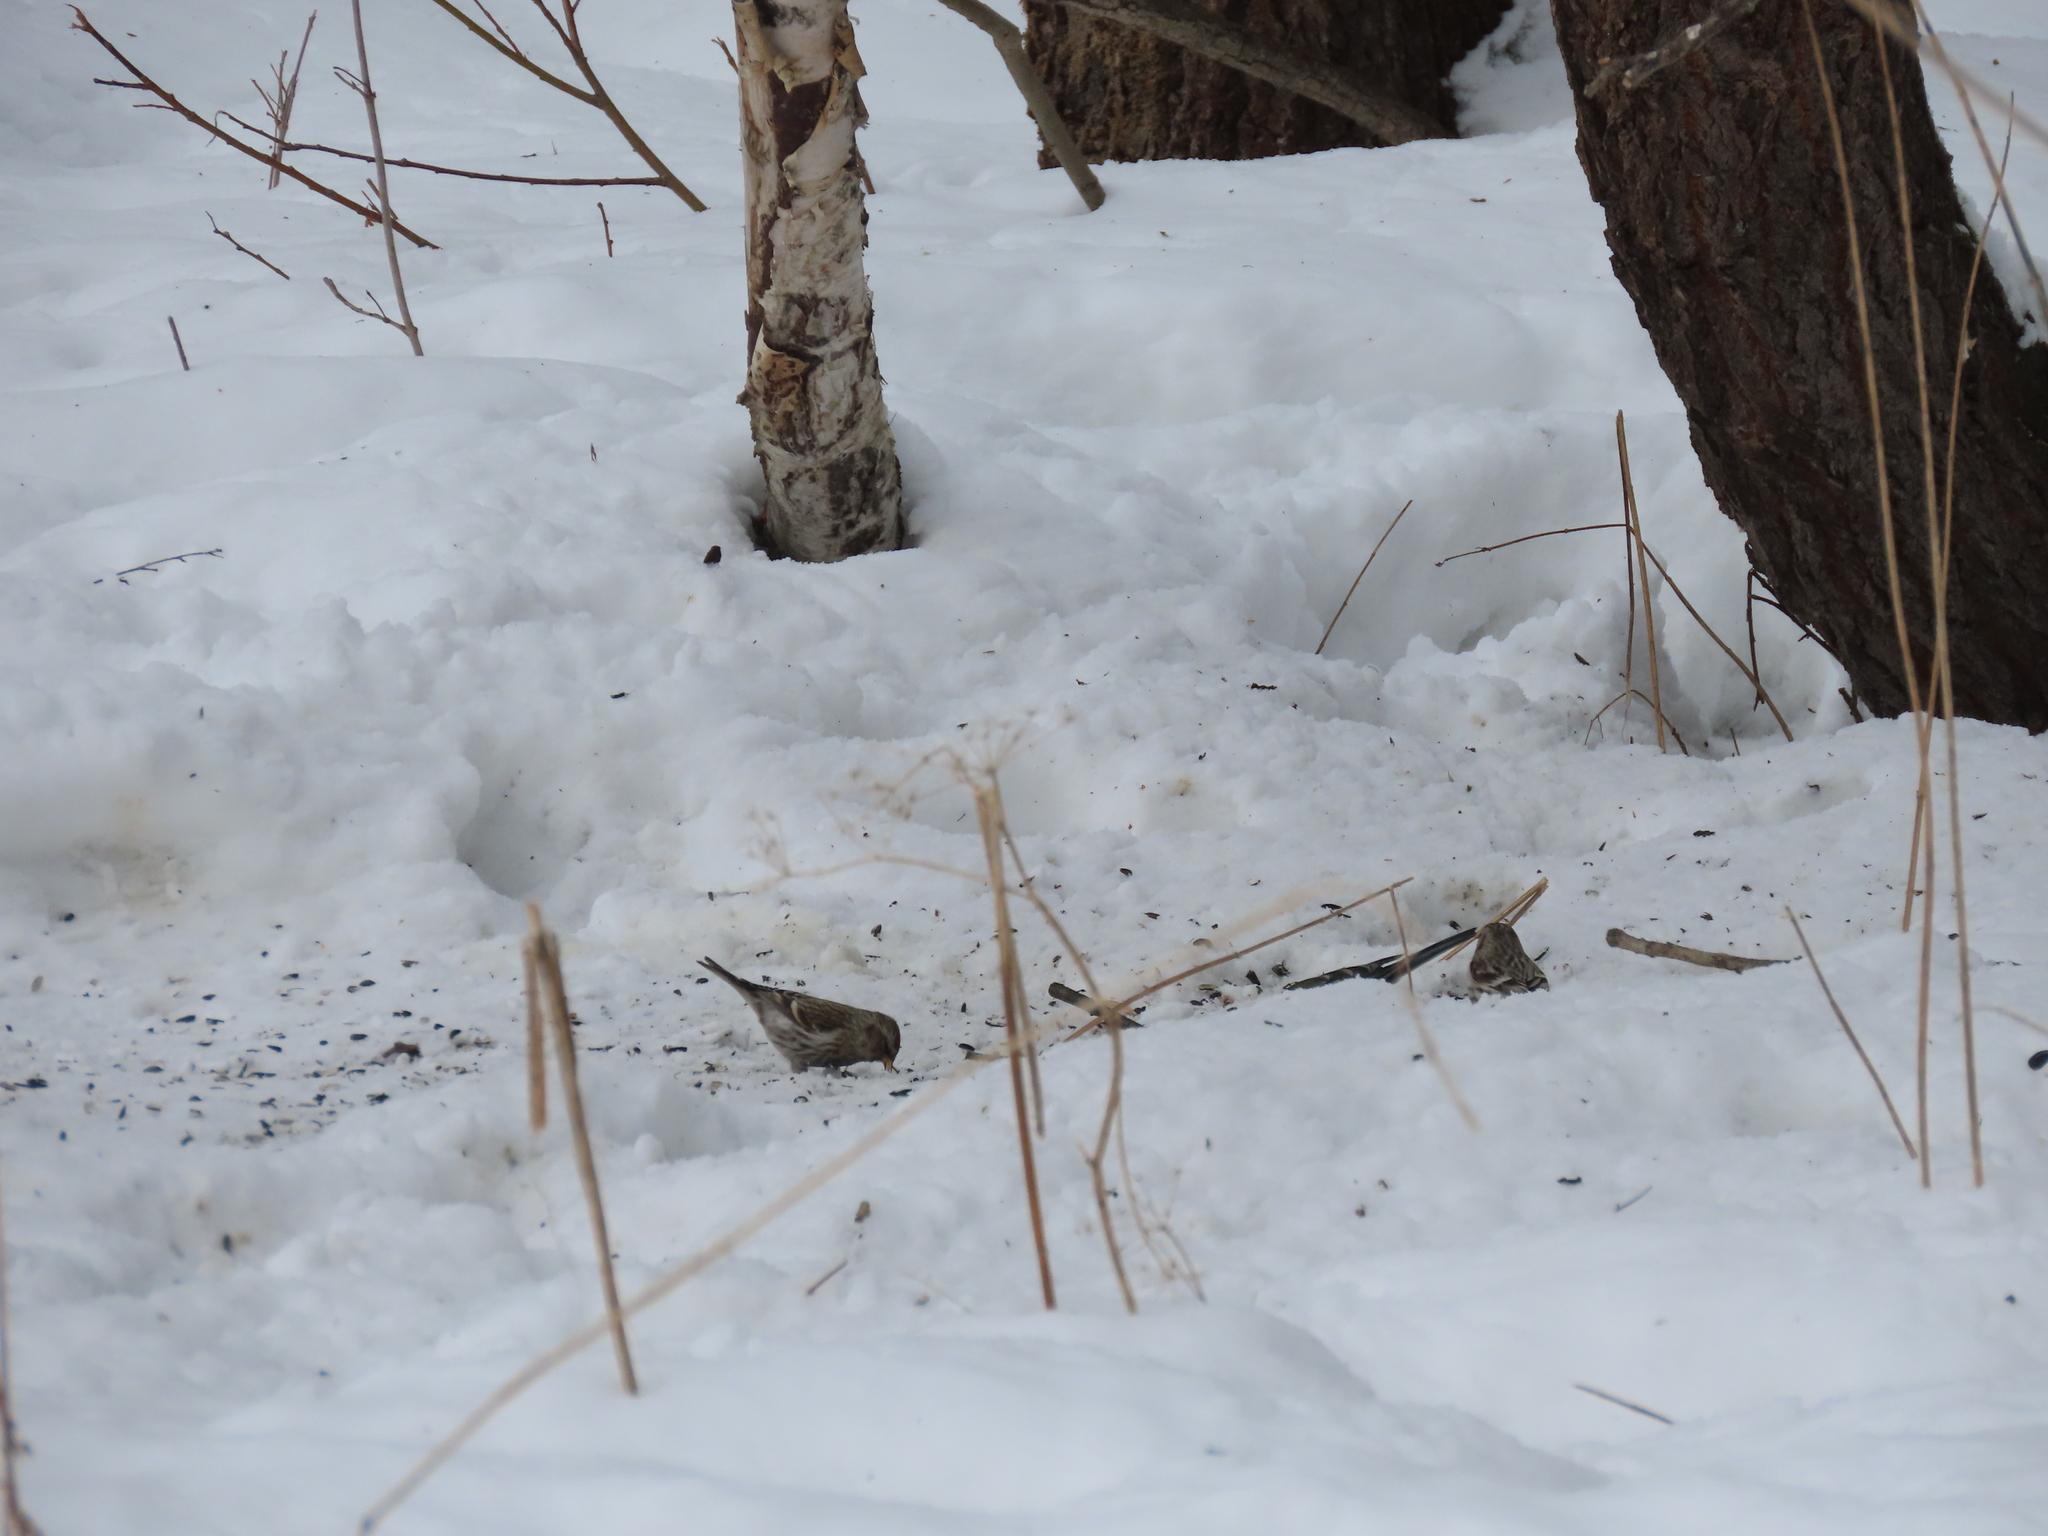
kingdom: Animalia
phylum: Chordata
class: Aves
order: Passeriformes
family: Fringillidae
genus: Acanthis
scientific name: Acanthis flammea
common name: Common redpoll
